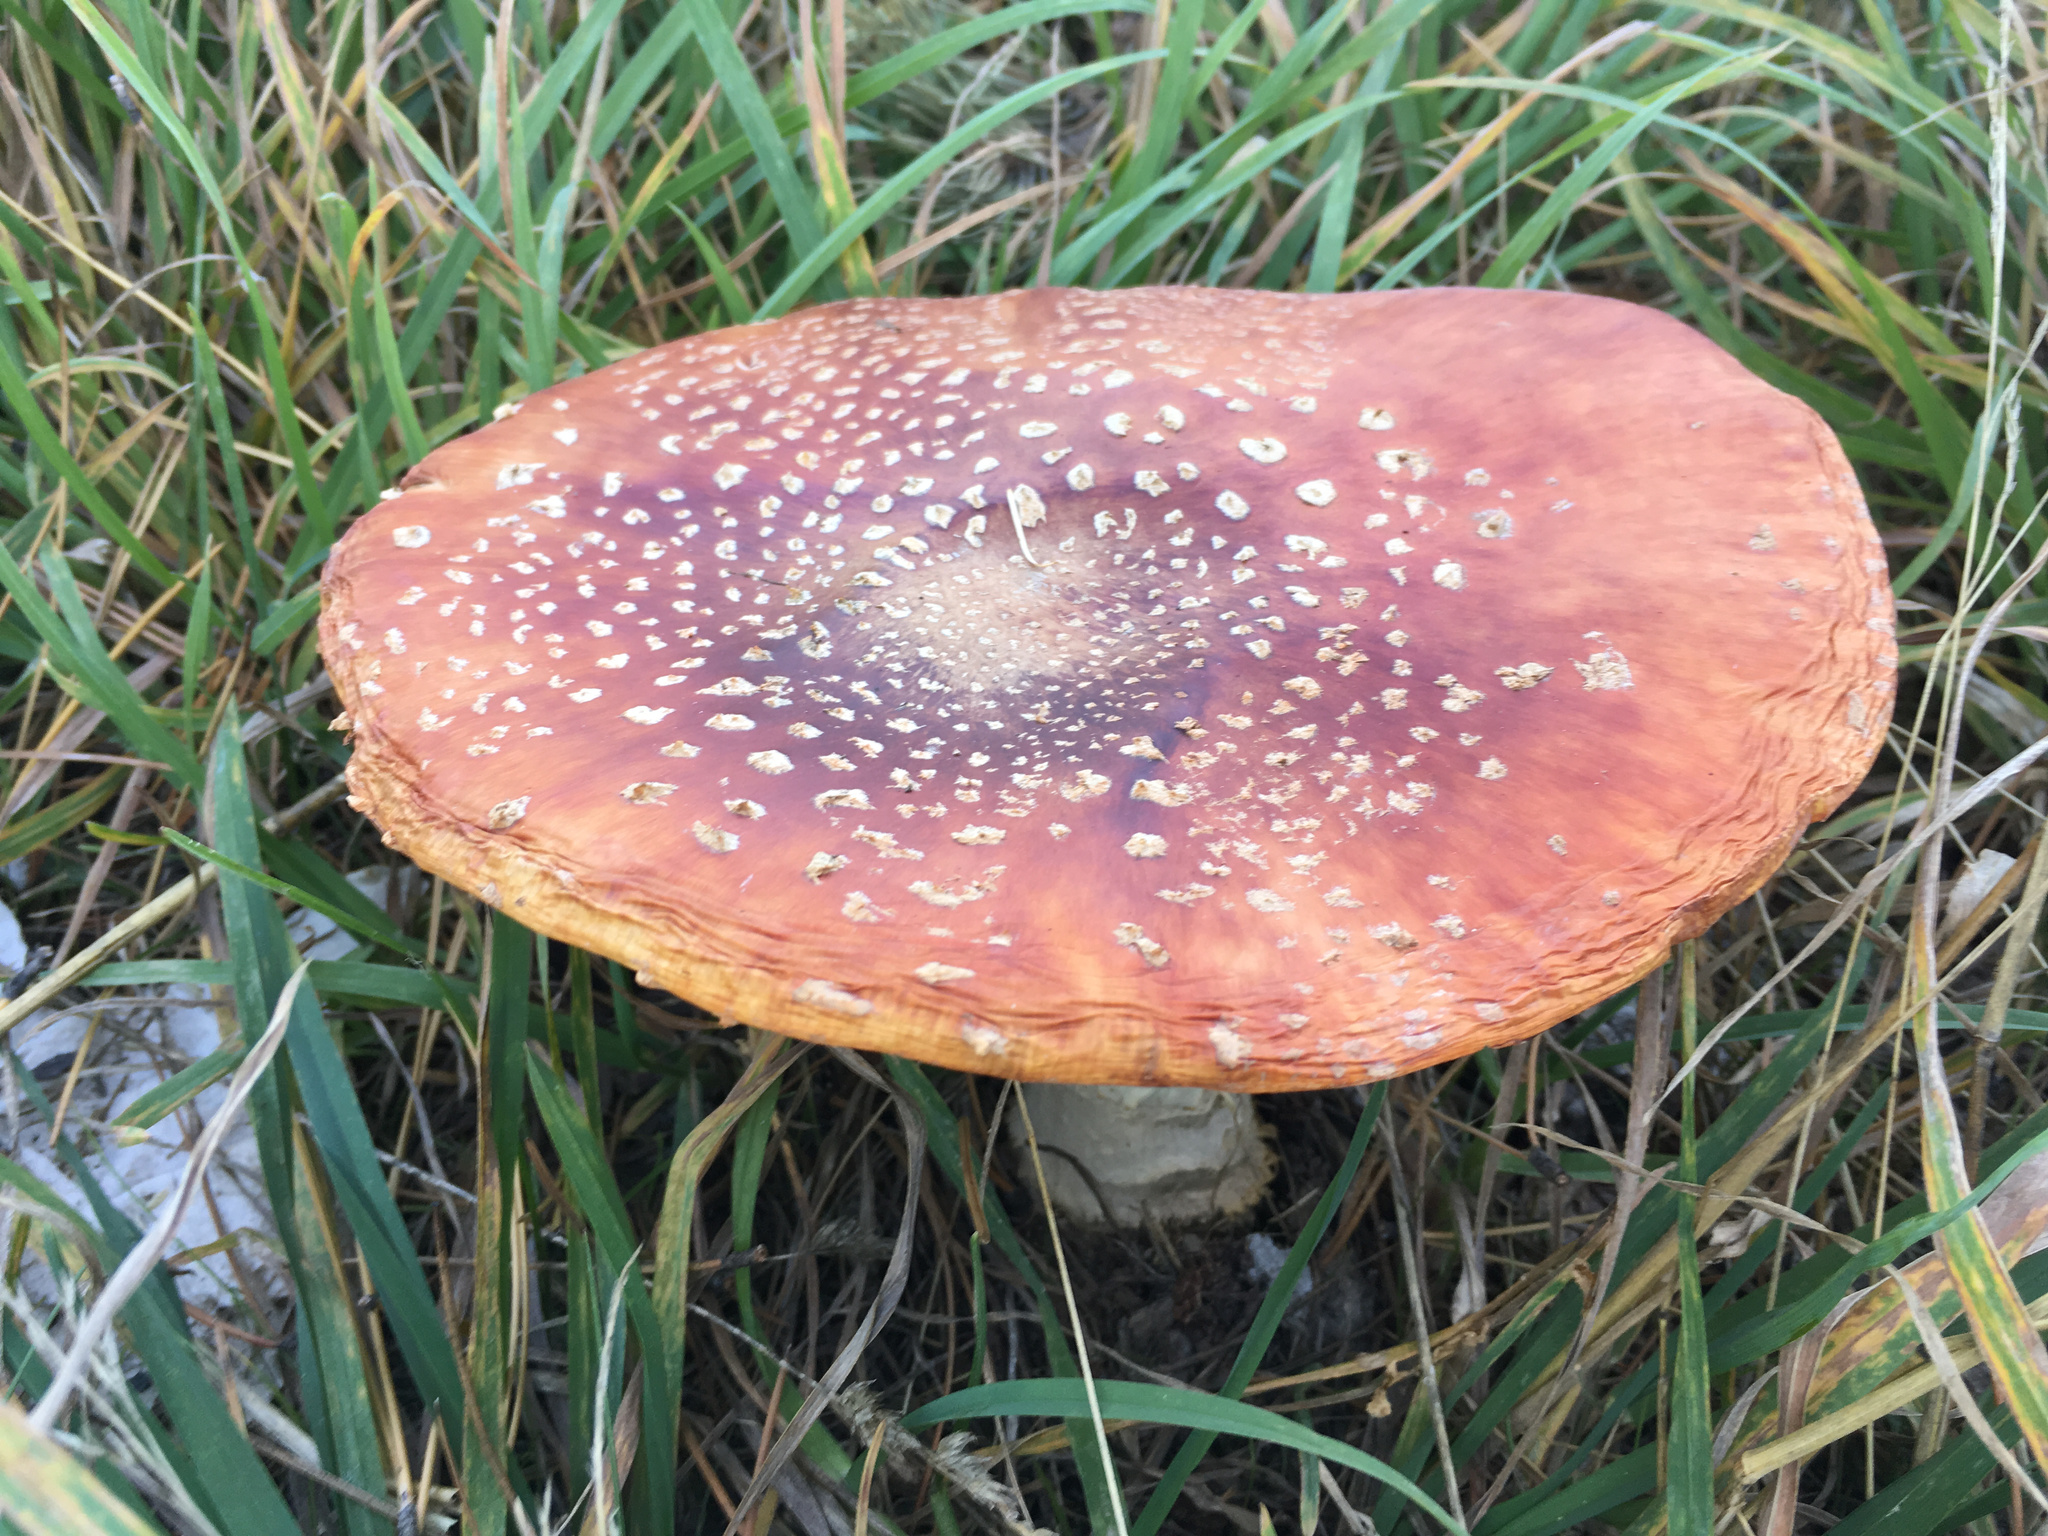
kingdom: Fungi
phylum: Basidiomycota
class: Agaricomycetes
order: Agaricales
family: Amanitaceae
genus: Amanita
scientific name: Amanita muscaria
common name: Fly agaric
